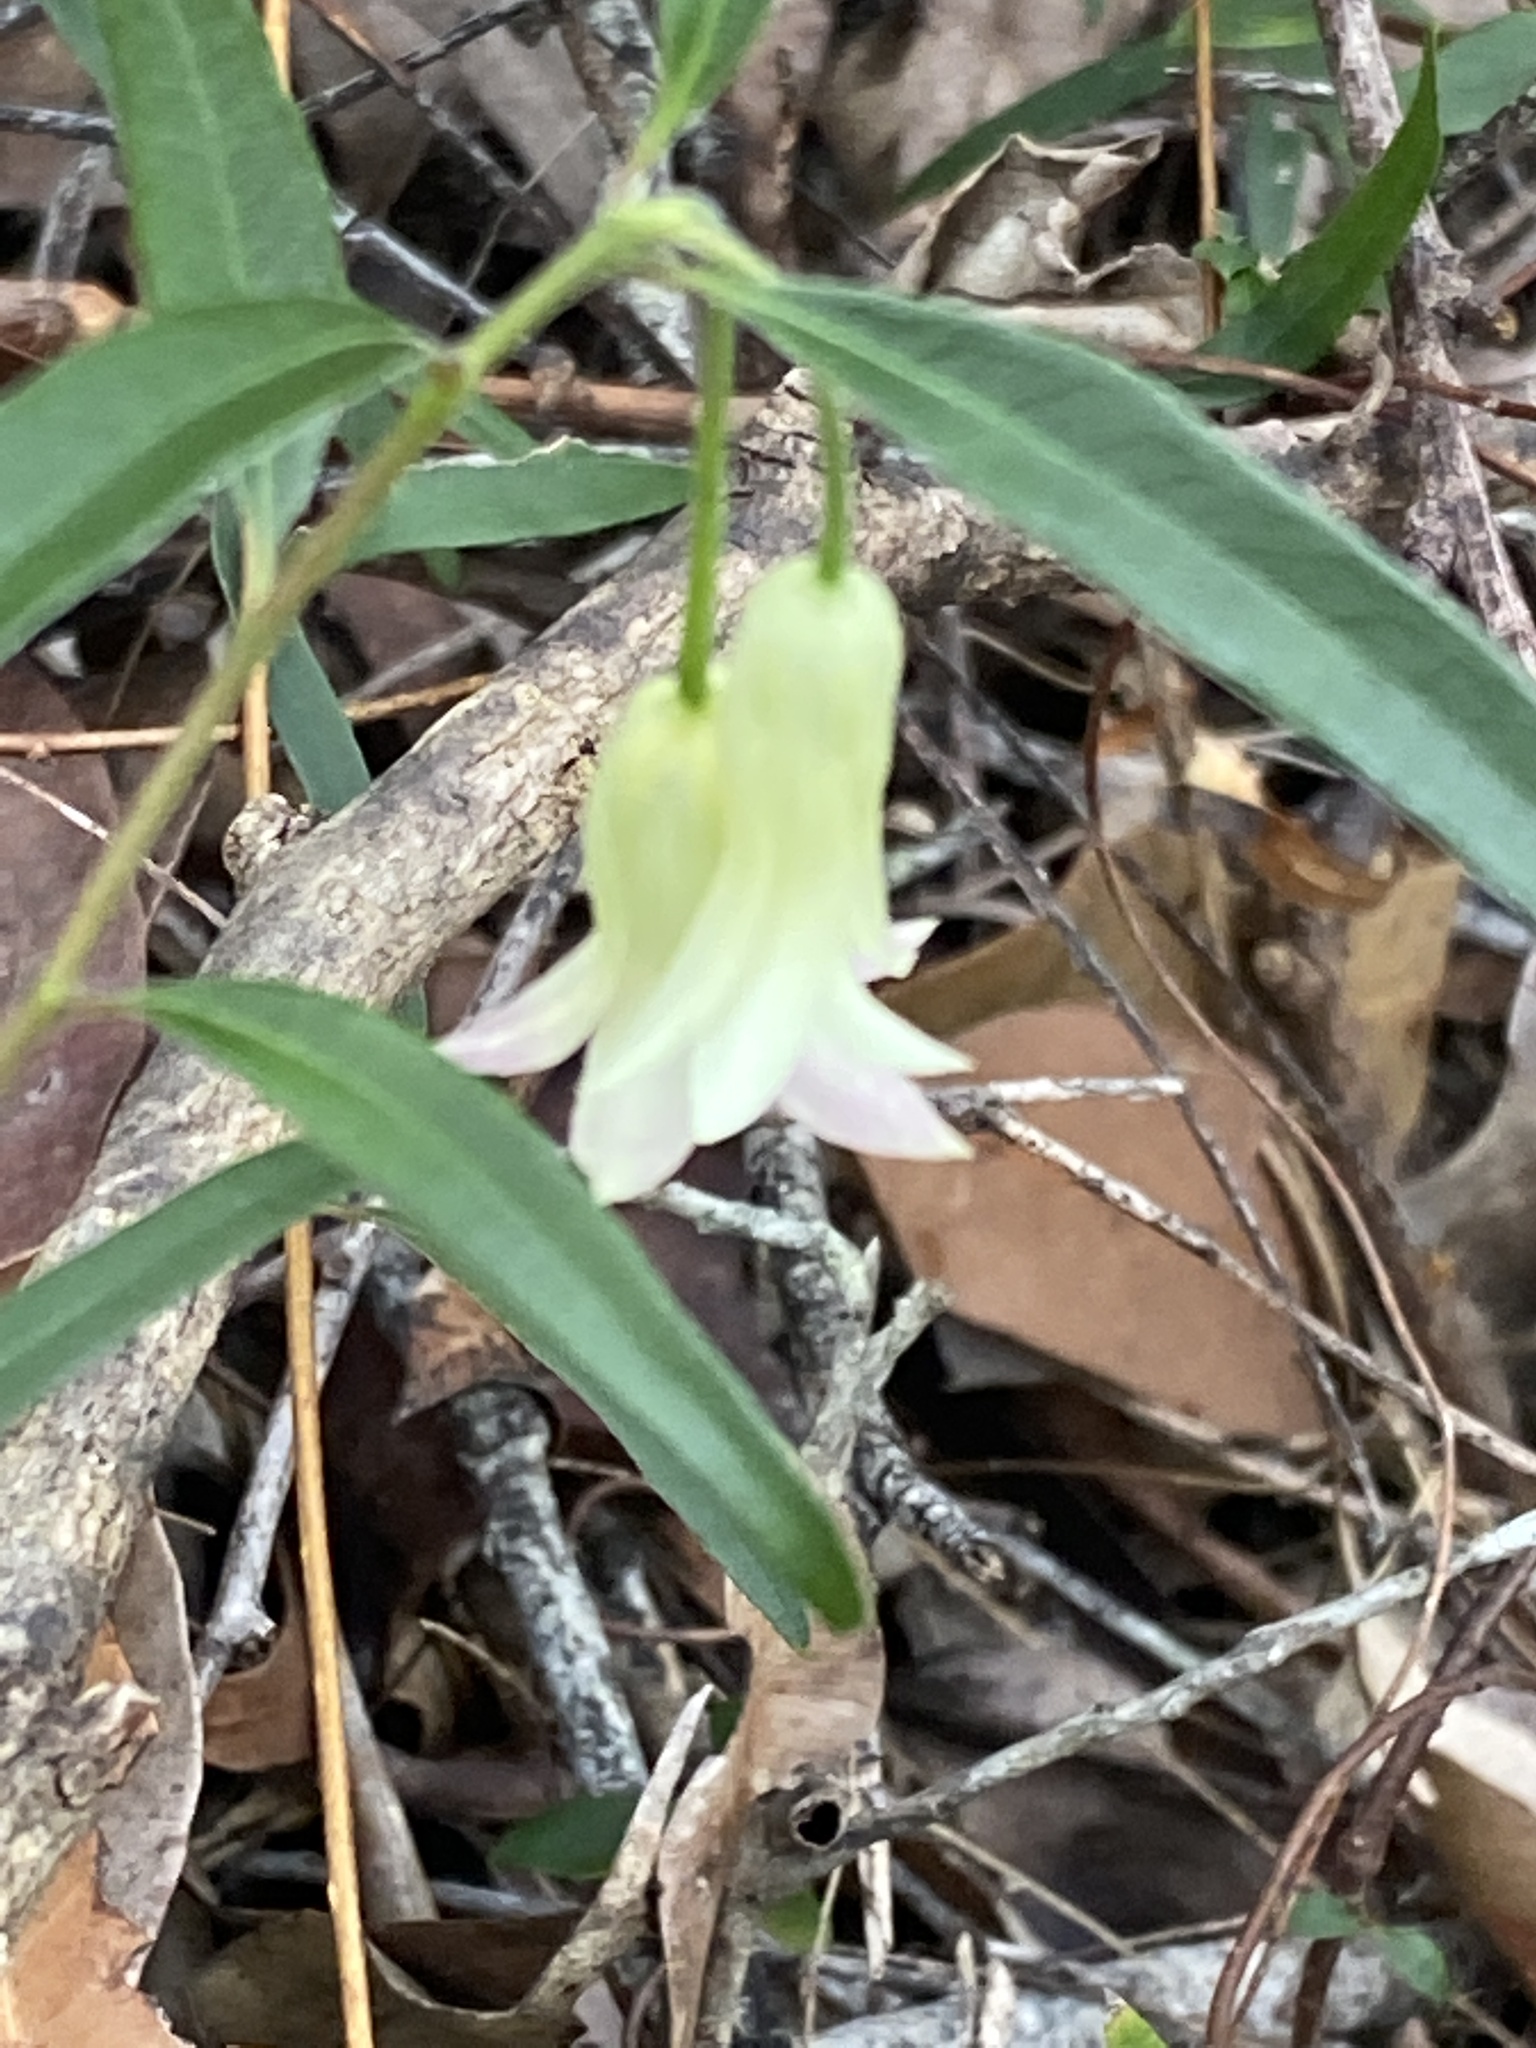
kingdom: Plantae
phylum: Tracheophyta
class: Magnoliopsida
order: Apiales
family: Pittosporaceae
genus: Billardiera
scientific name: Billardiera scandens
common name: Apple-berry
